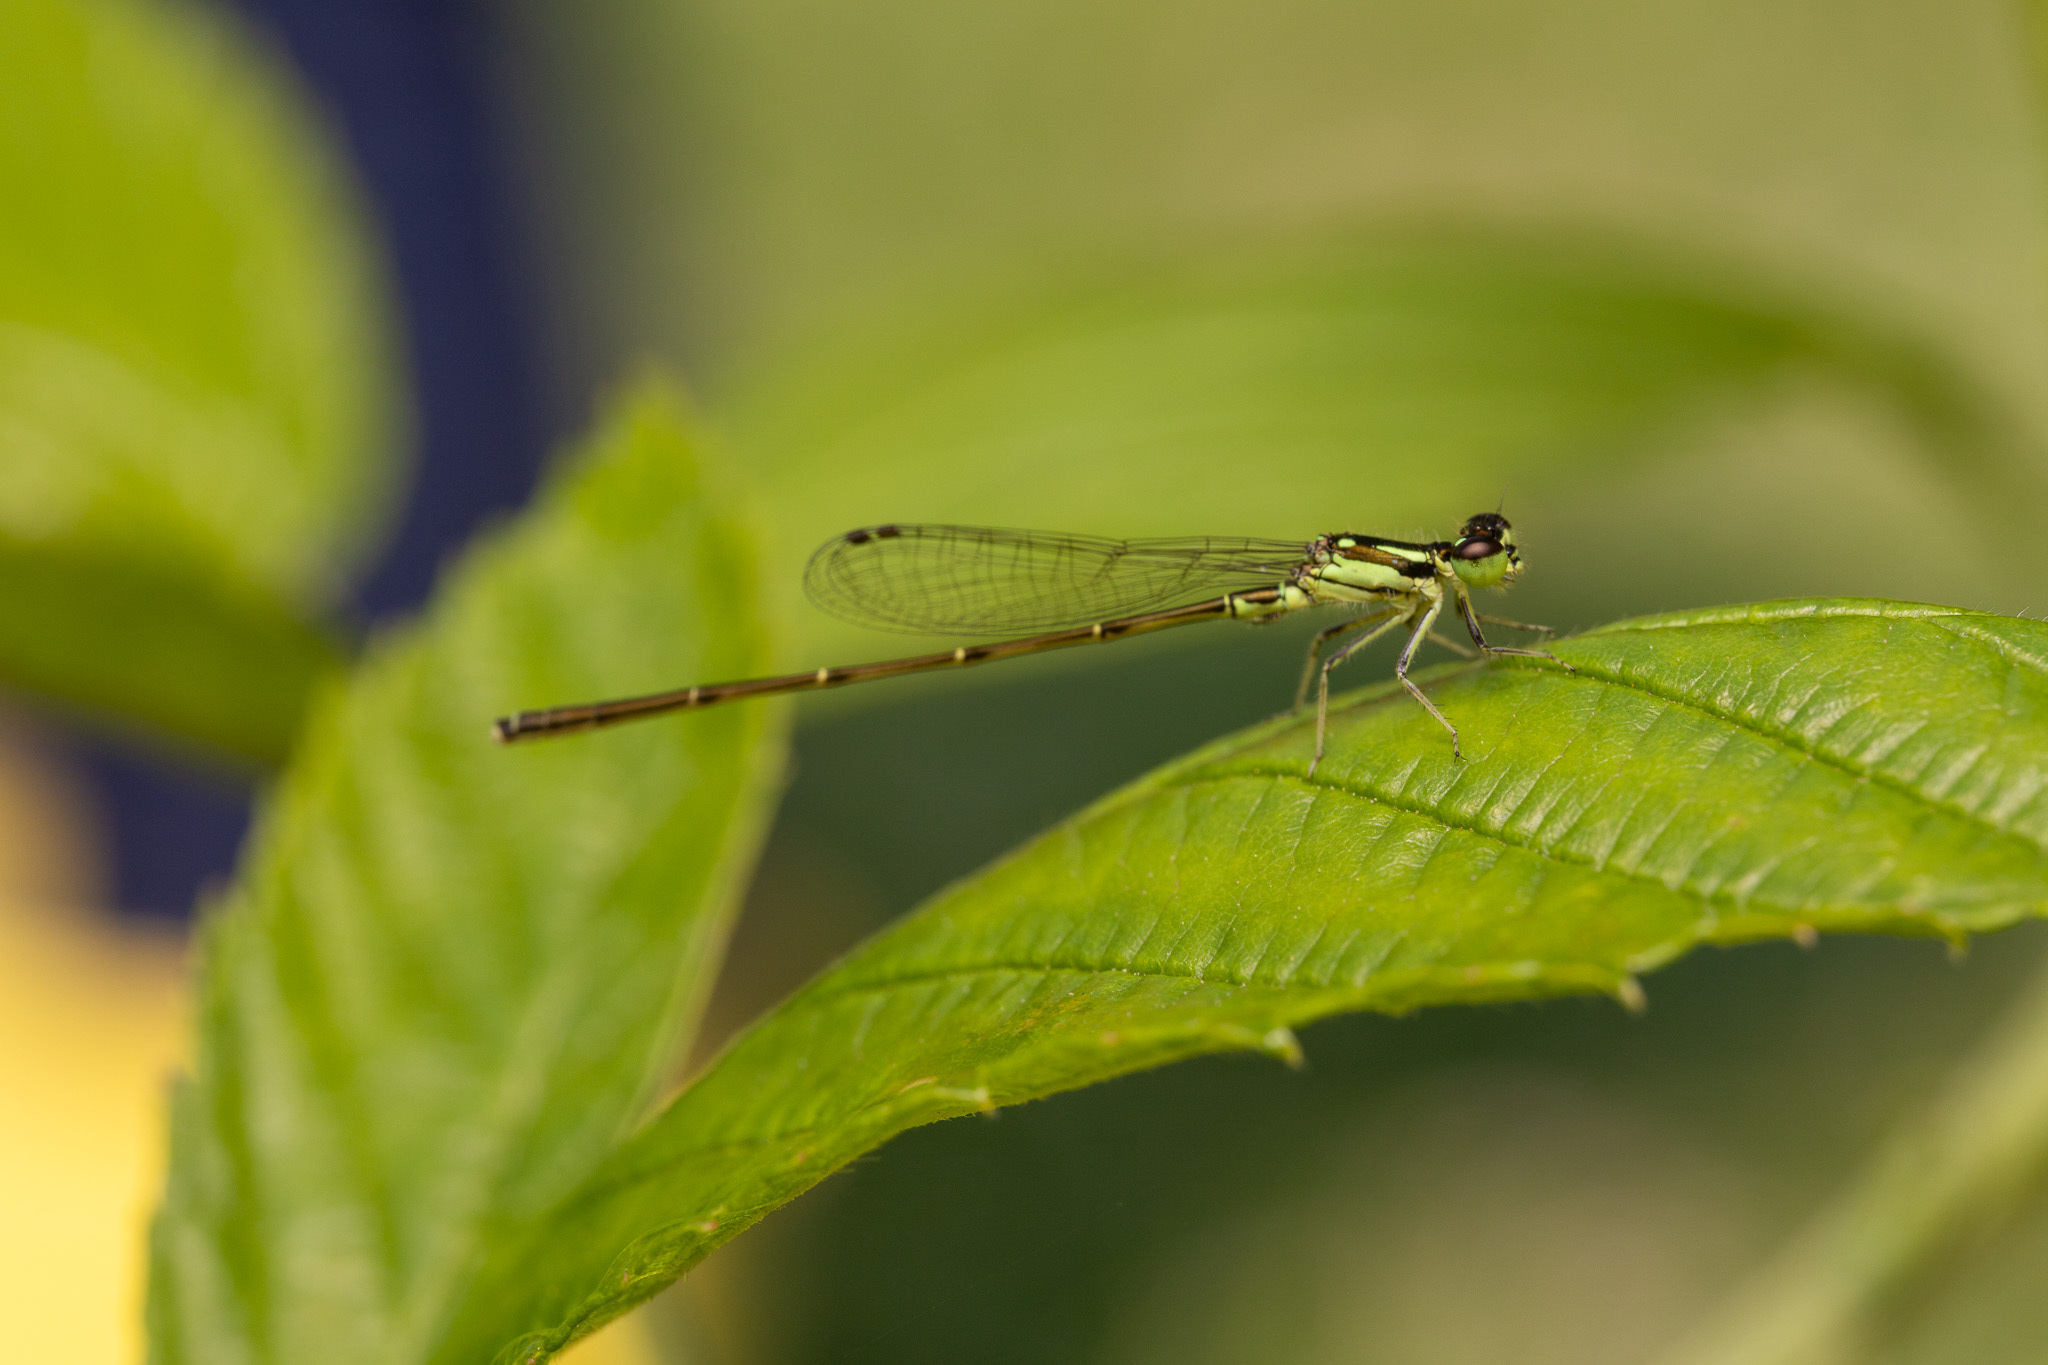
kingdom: Animalia
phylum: Arthropoda
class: Insecta
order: Odonata
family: Coenagrionidae
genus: Ischnura
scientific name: Ischnura posita
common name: Fragile forktail
